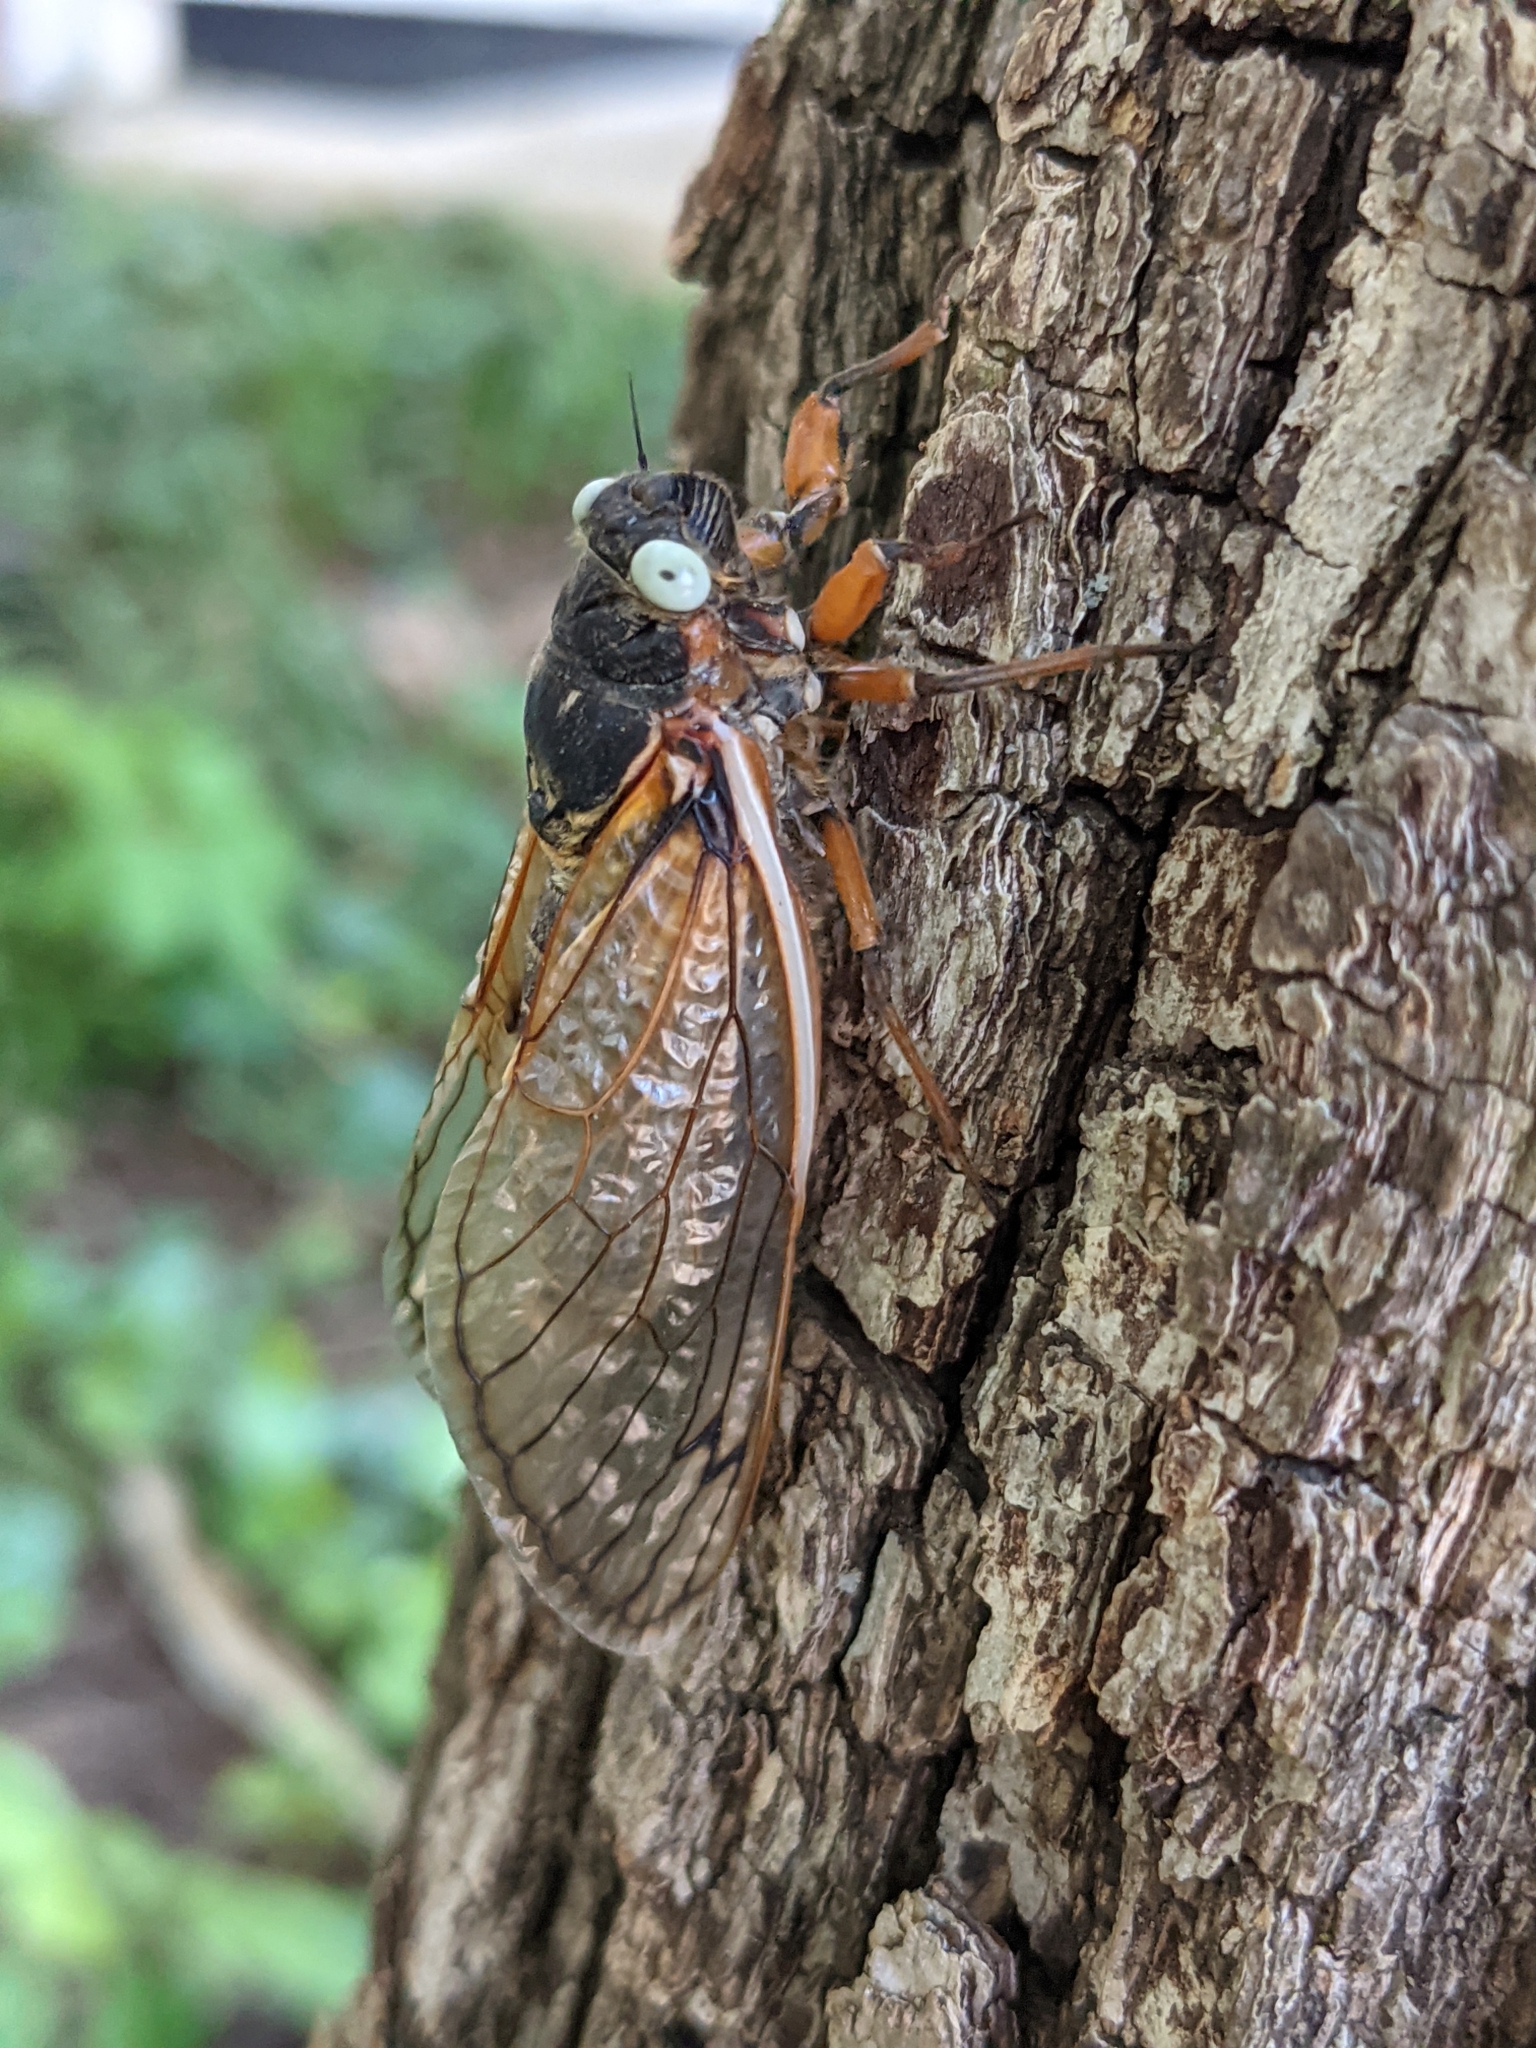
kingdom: Animalia
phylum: Arthropoda
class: Insecta
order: Hemiptera
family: Cicadidae
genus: Magicicada
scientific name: Magicicada septendecim
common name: Periodical cicada
